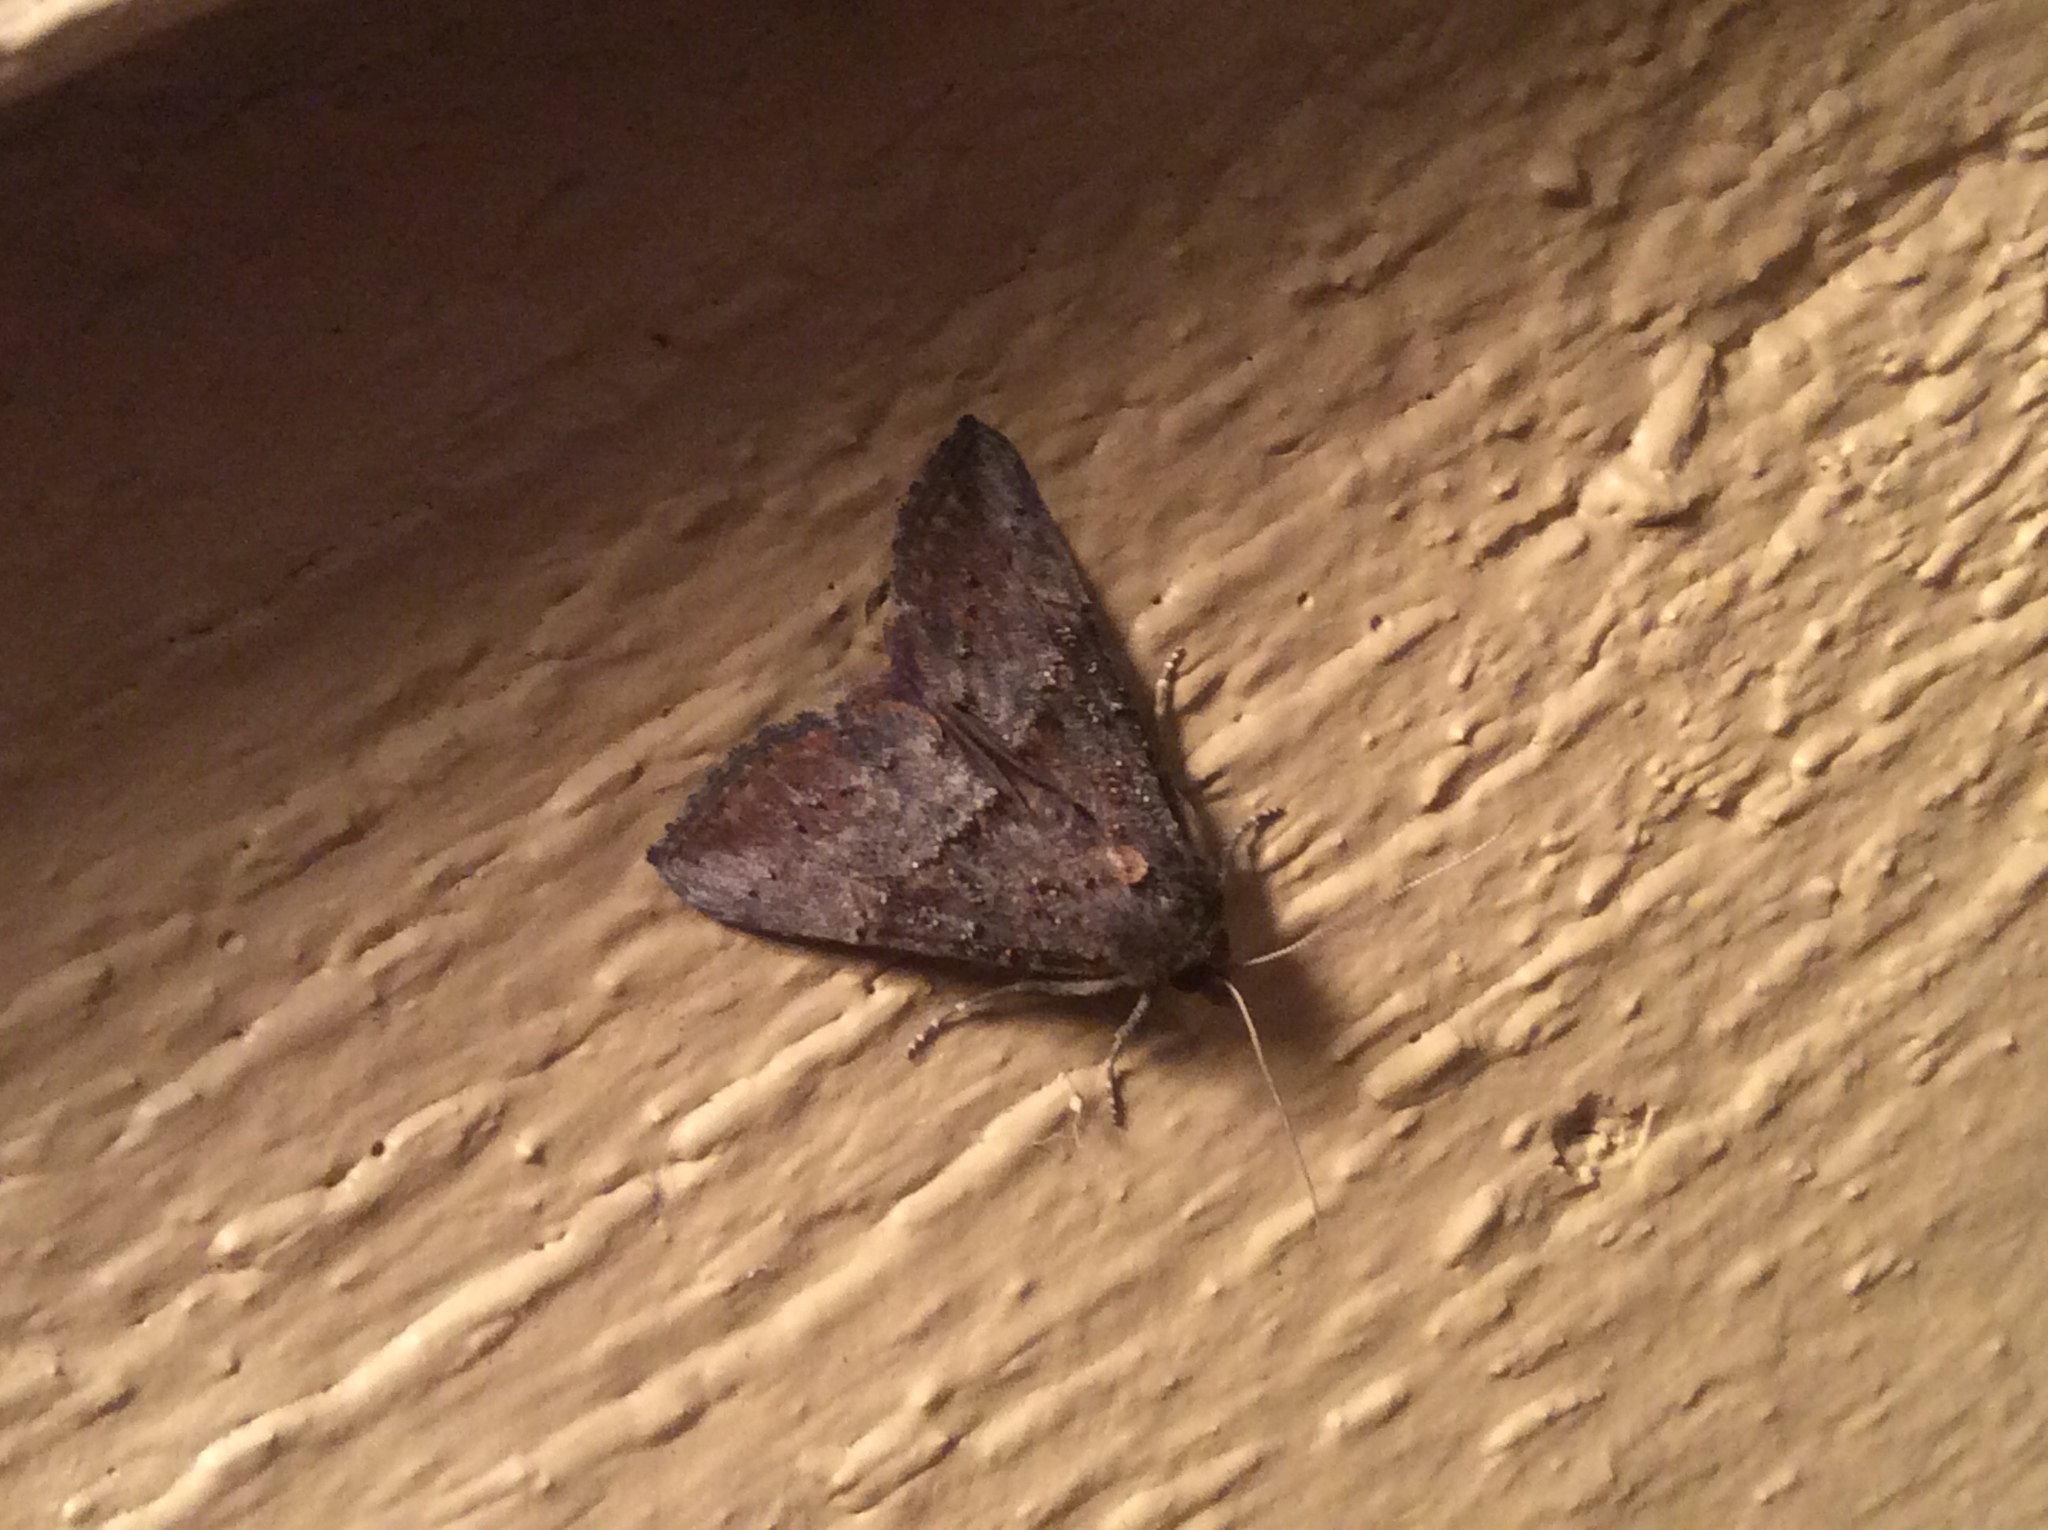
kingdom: Animalia
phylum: Arthropoda
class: Insecta
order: Lepidoptera
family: Erebidae
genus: Hypena
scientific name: Hypena scabra
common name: Green cloverworm
